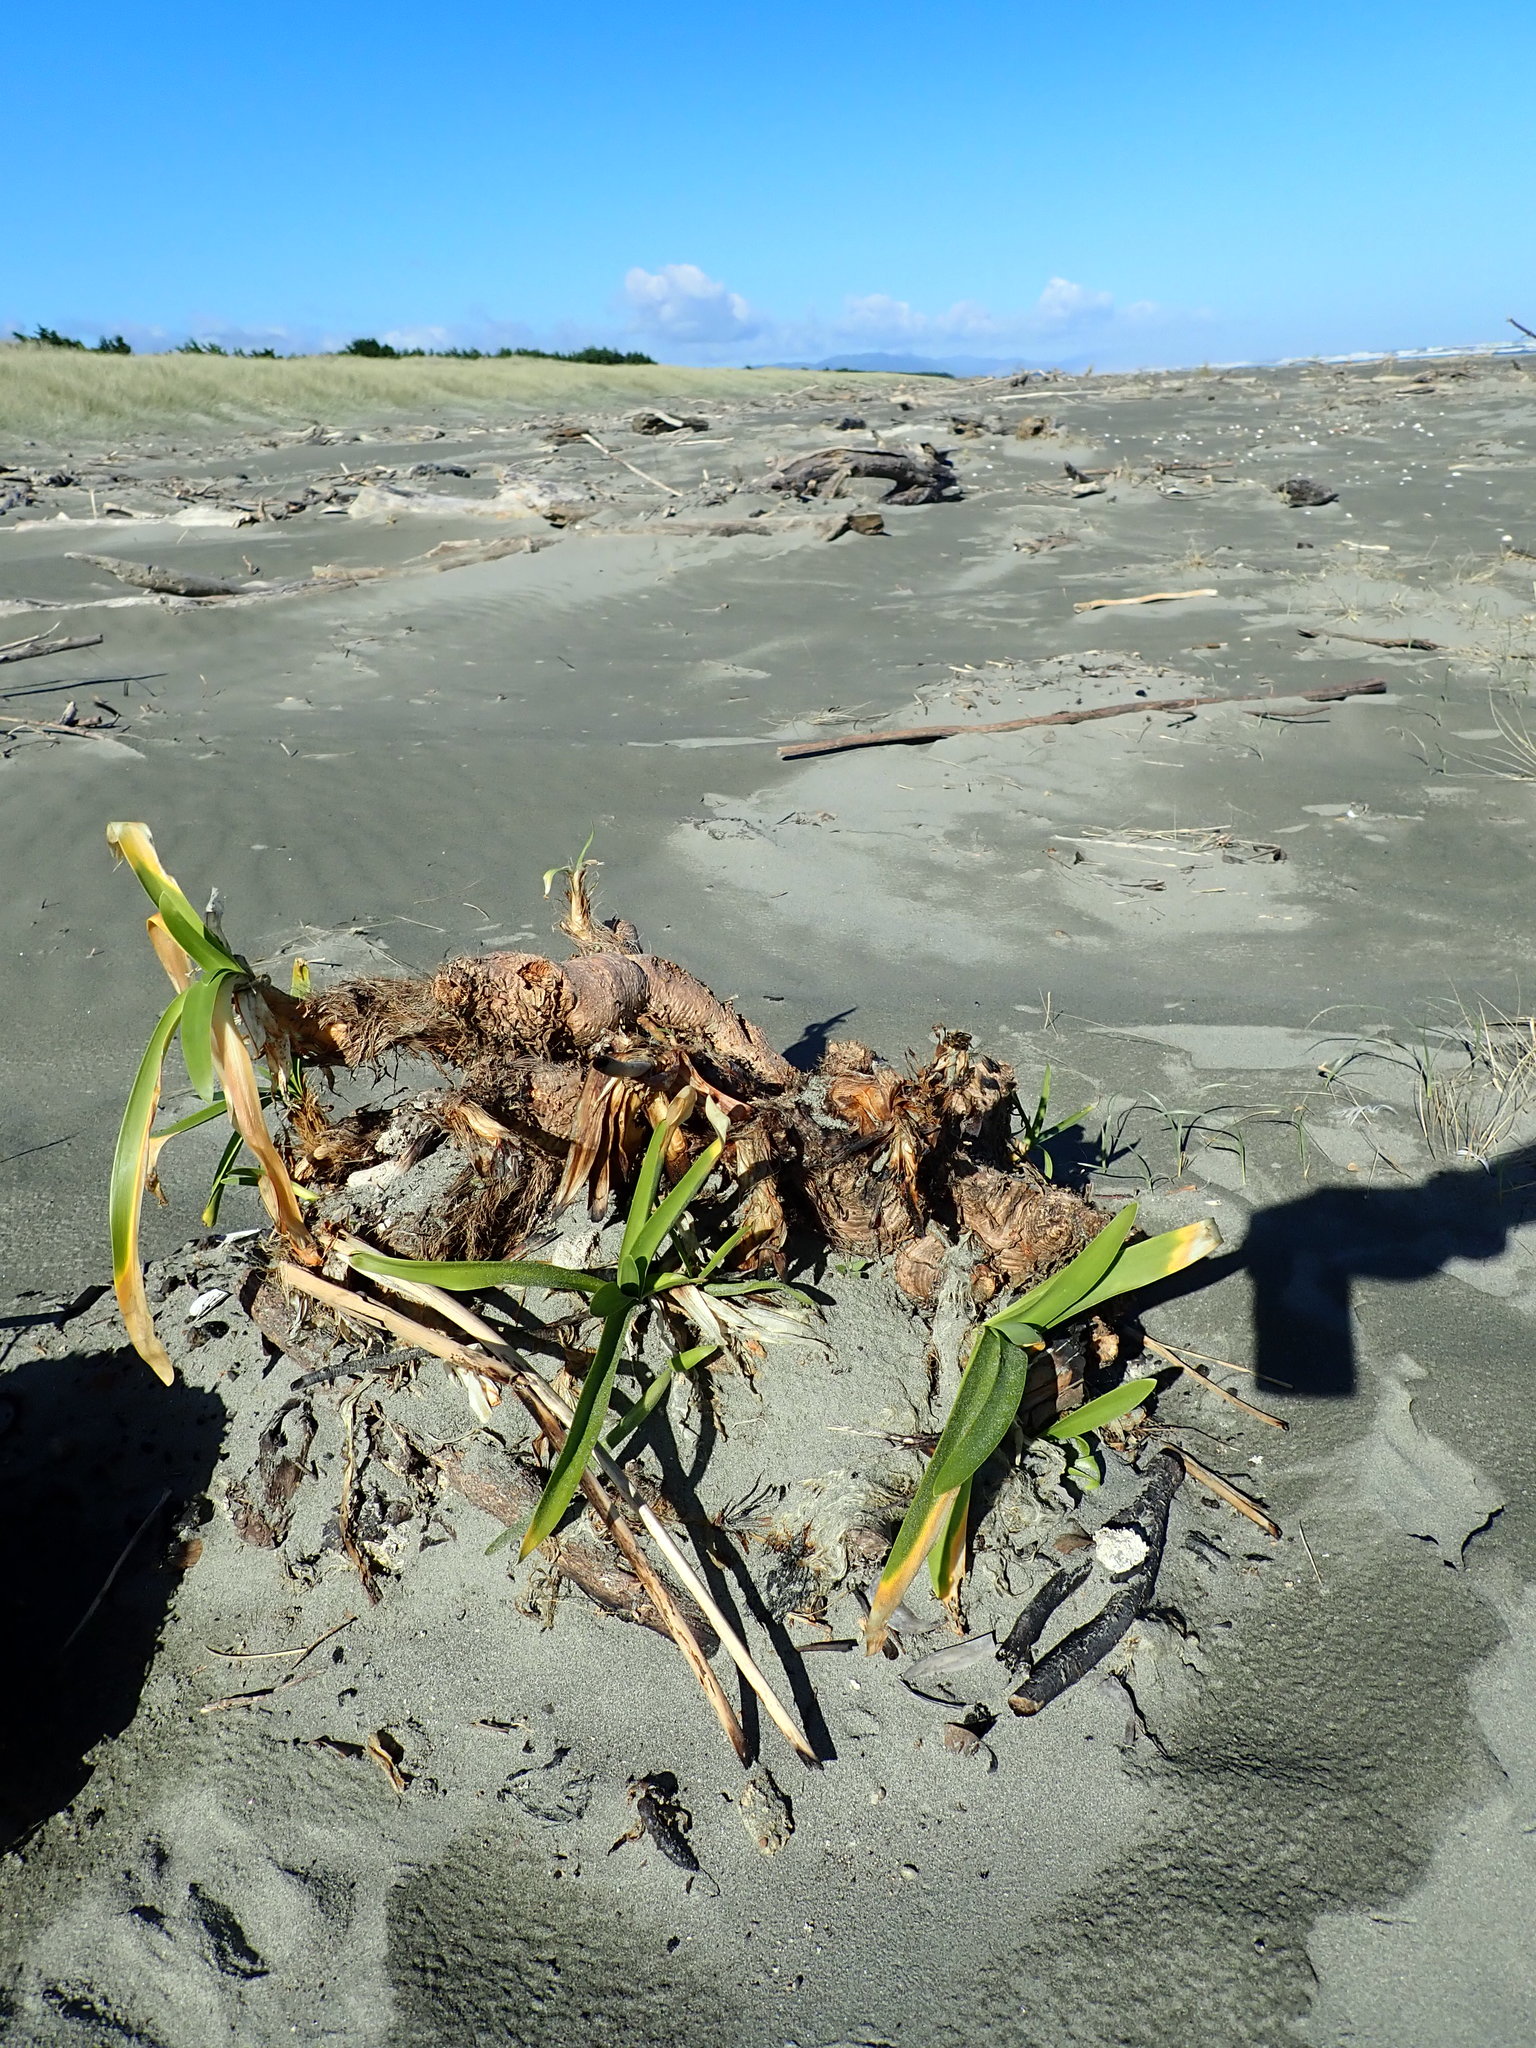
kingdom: Plantae
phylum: Tracheophyta
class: Liliopsida
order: Asparagales
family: Amaryllidaceae
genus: Agapanthus
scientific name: Agapanthus praecox
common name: African-lily
